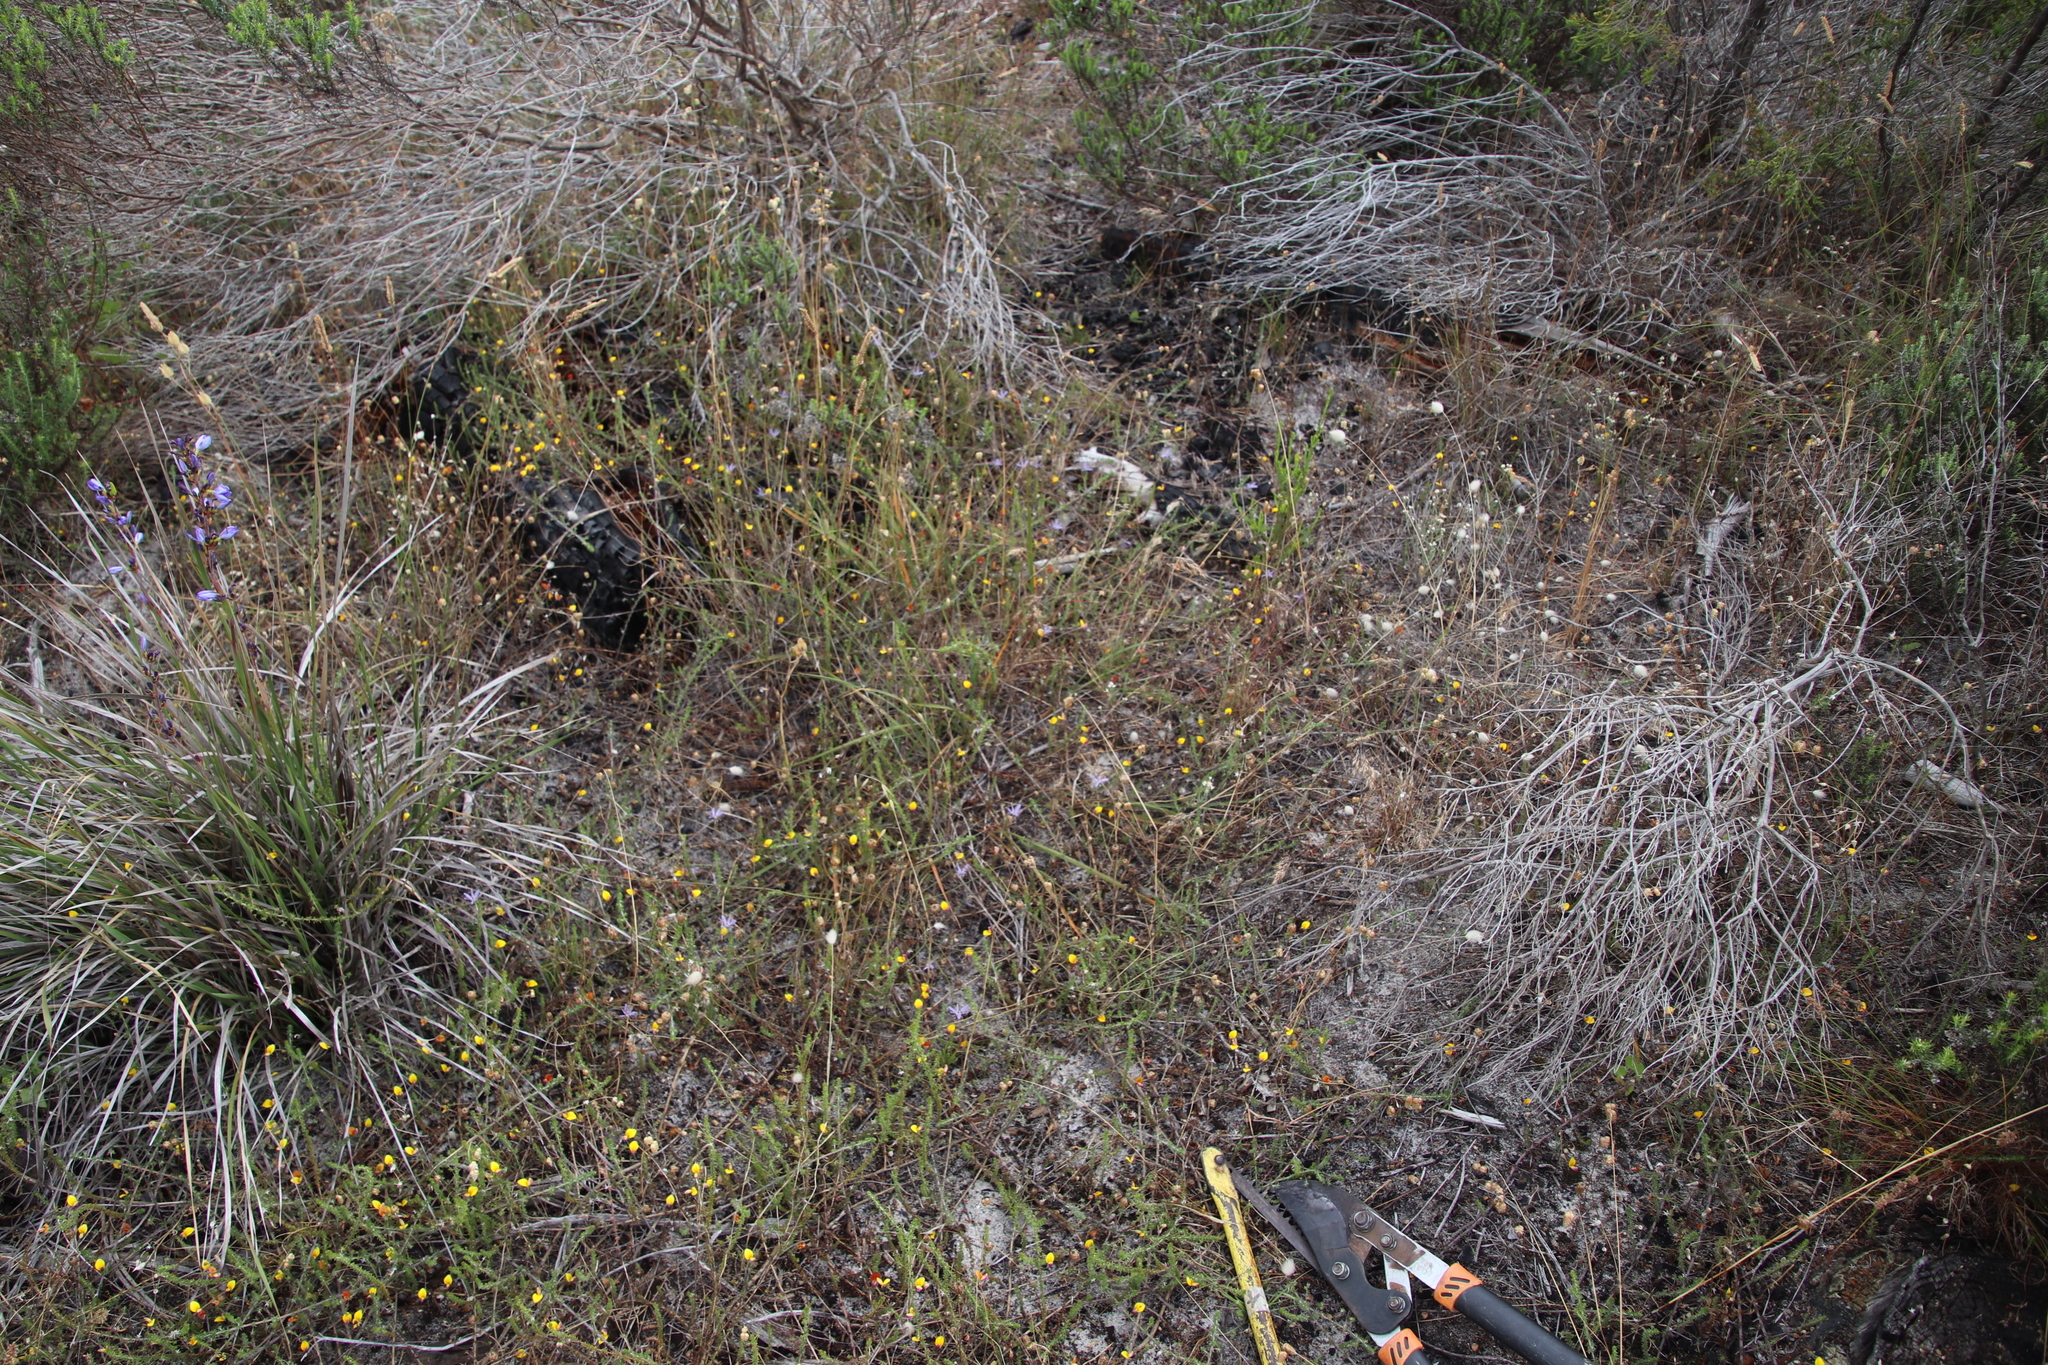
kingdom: Plantae
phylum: Tracheophyta
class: Magnoliopsida
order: Fabales
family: Fabaceae
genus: Aspalathus
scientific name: Aspalathus retroflexa
